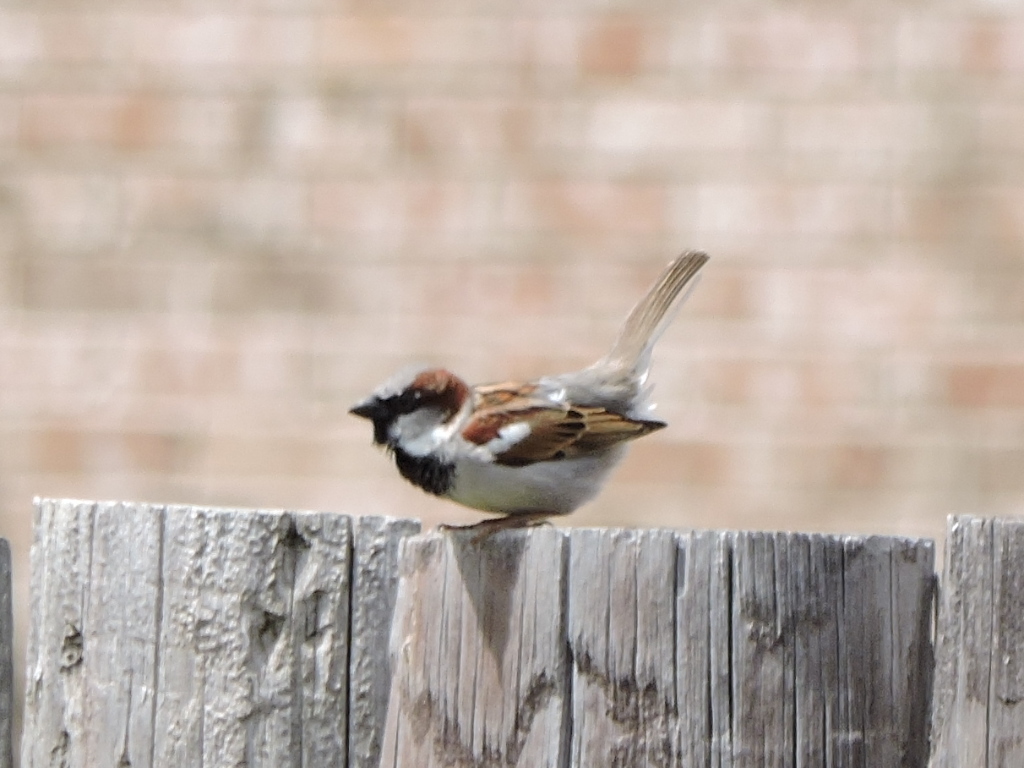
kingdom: Animalia
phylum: Chordata
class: Aves
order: Passeriformes
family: Passeridae
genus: Passer
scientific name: Passer domesticus
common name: House sparrow
